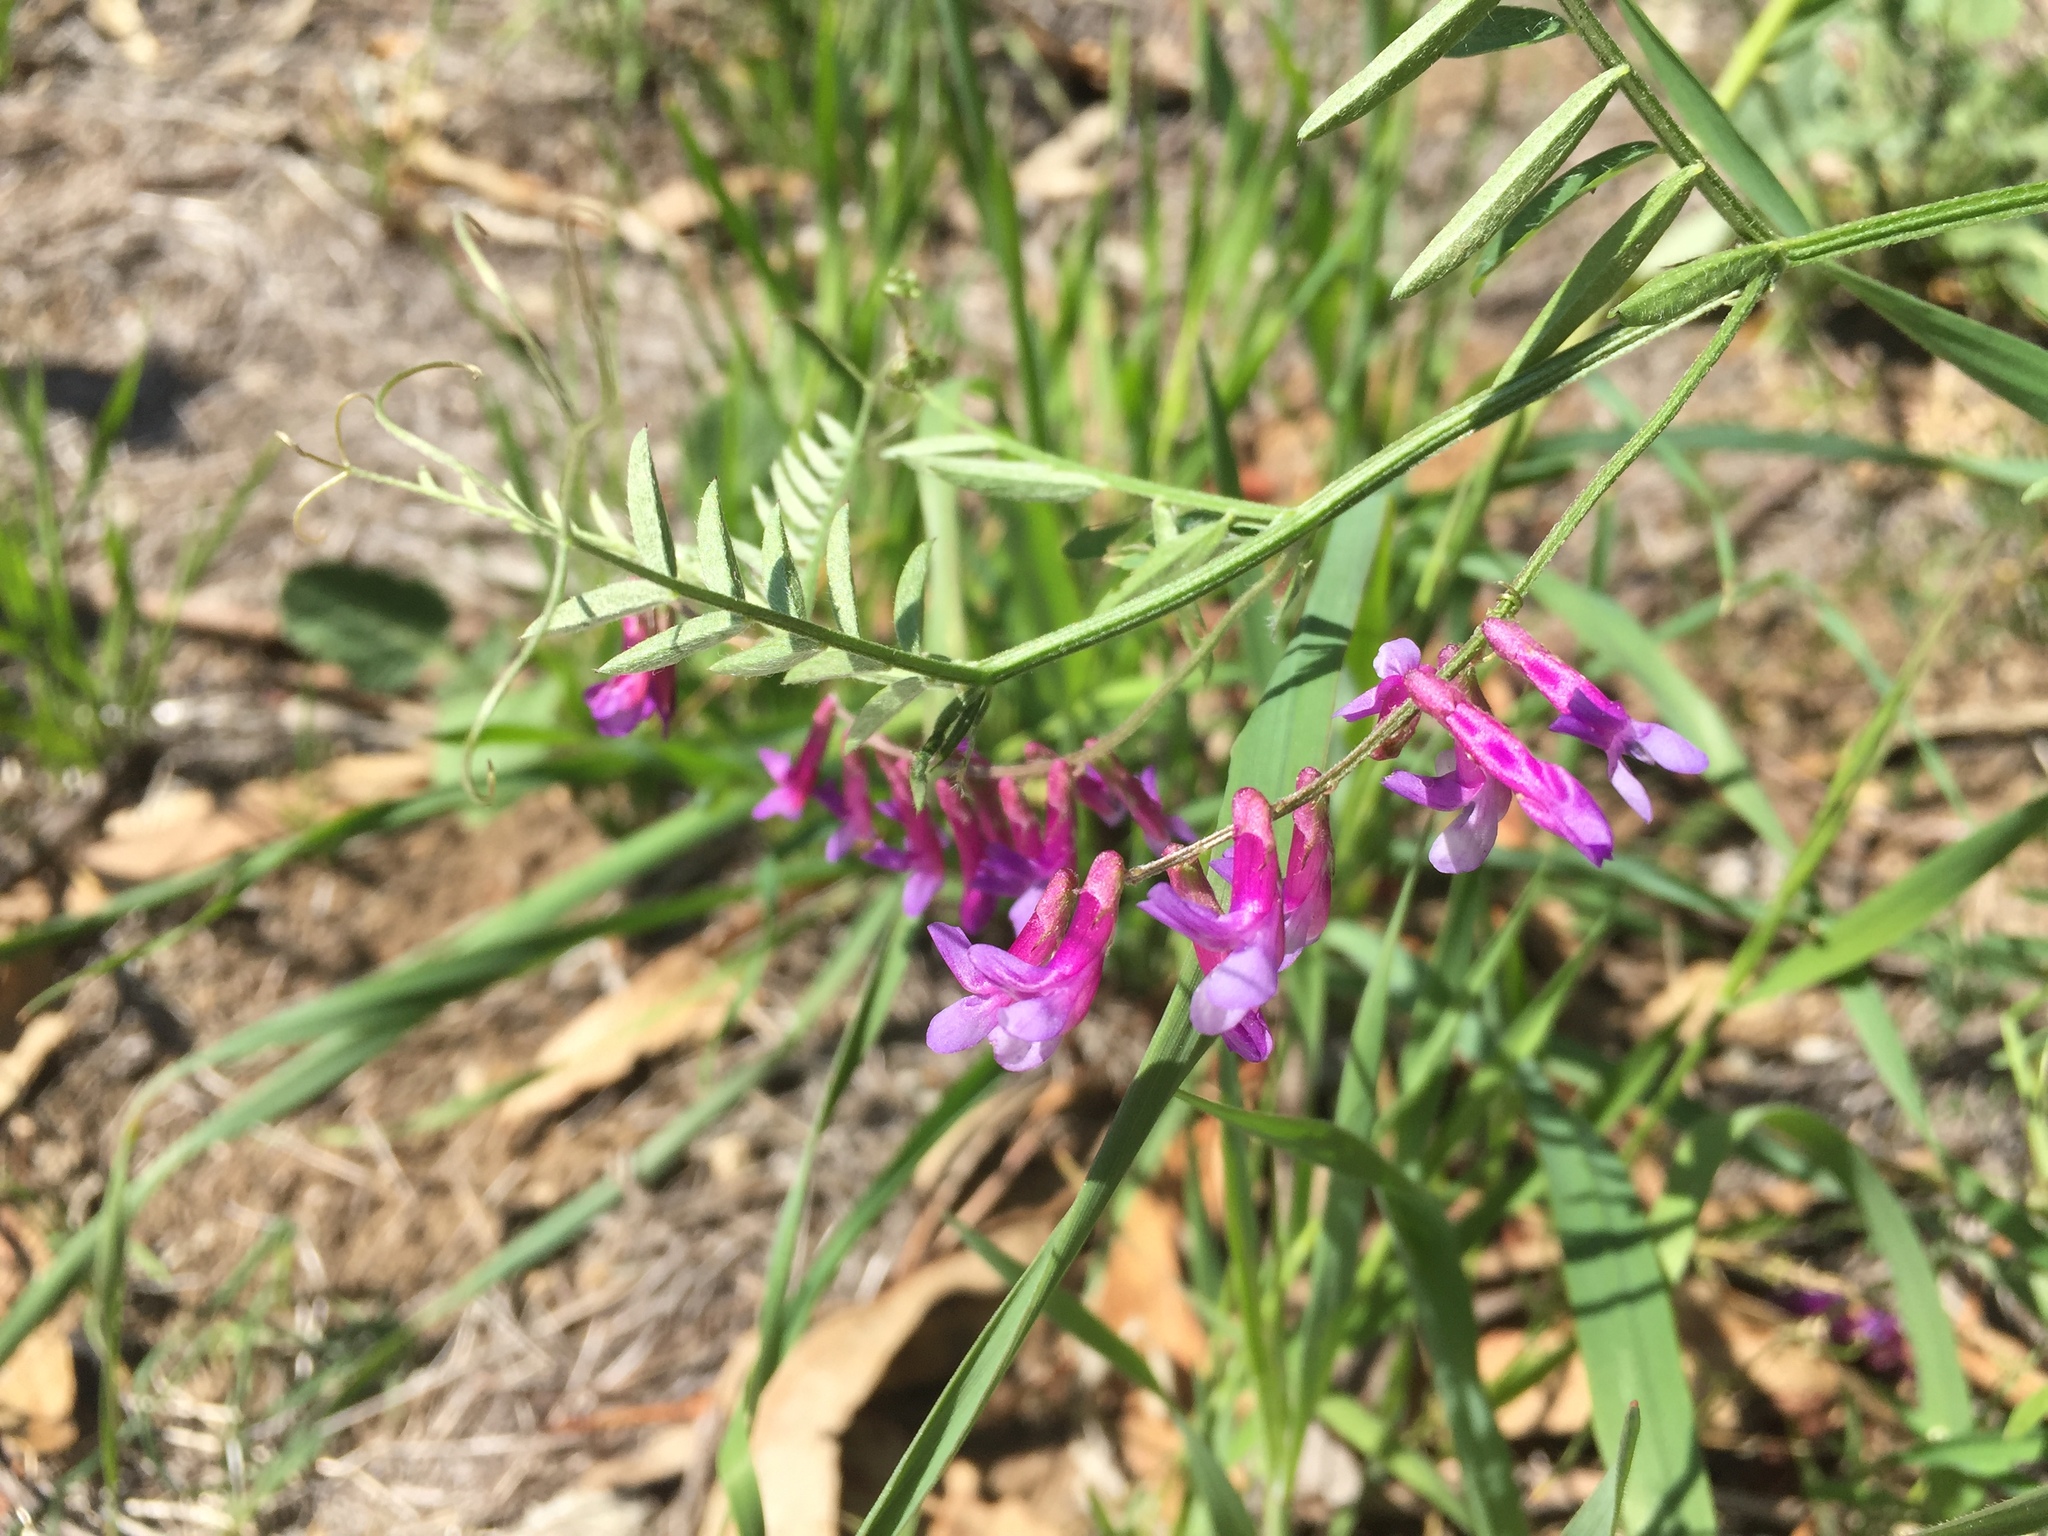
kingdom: Plantae
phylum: Tracheophyta
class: Magnoliopsida
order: Fabales
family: Fabaceae
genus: Vicia
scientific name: Vicia villosa
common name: Fodder vetch
